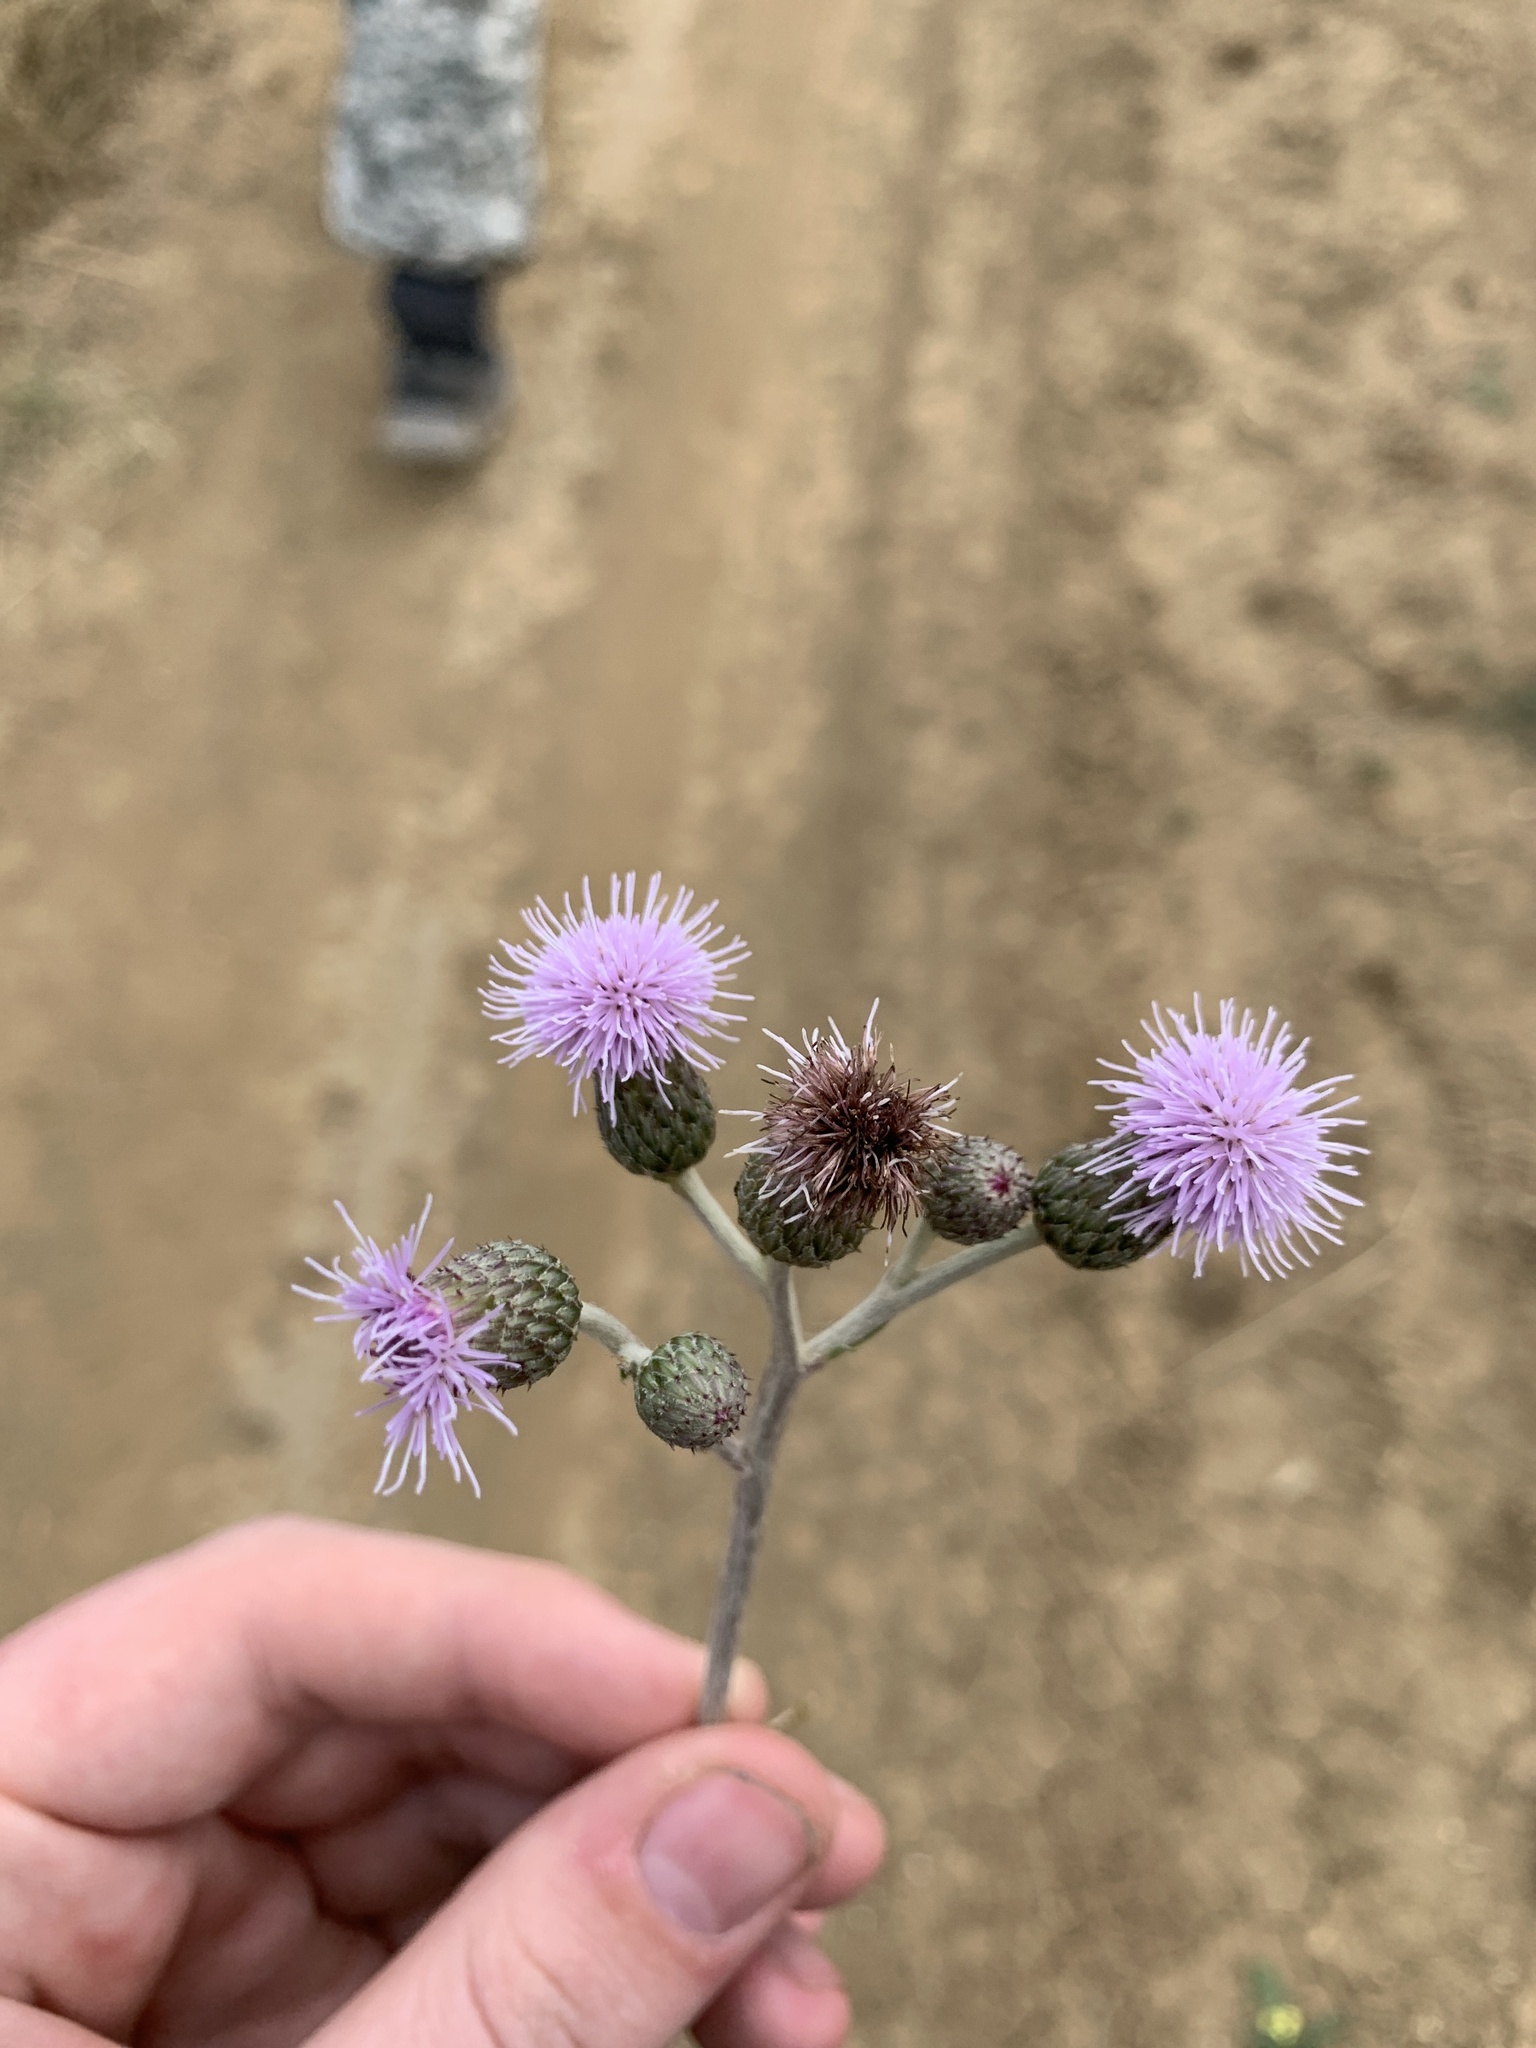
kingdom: Plantae
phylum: Tracheophyta
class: Magnoliopsida
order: Asterales
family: Asteraceae
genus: Cirsium
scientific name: Cirsium arvense
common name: Creeping thistle
